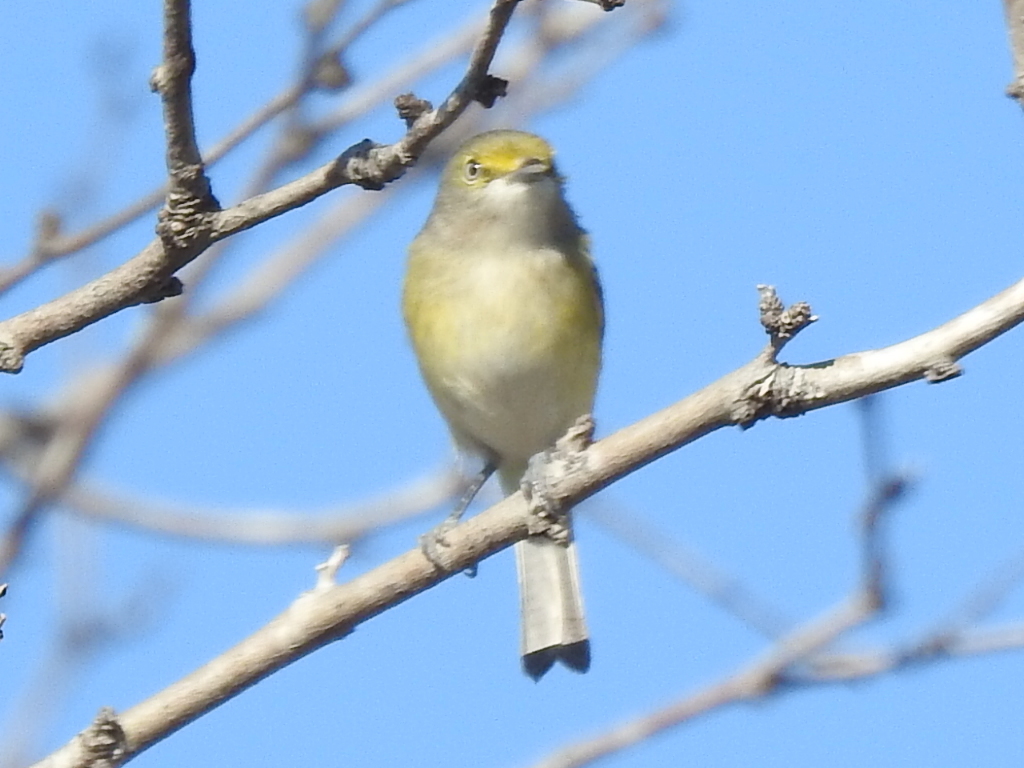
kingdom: Animalia
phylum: Chordata
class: Aves
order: Passeriformes
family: Vireonidae
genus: Vireo
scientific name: Vireo griseus
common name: White-eyed vireo
